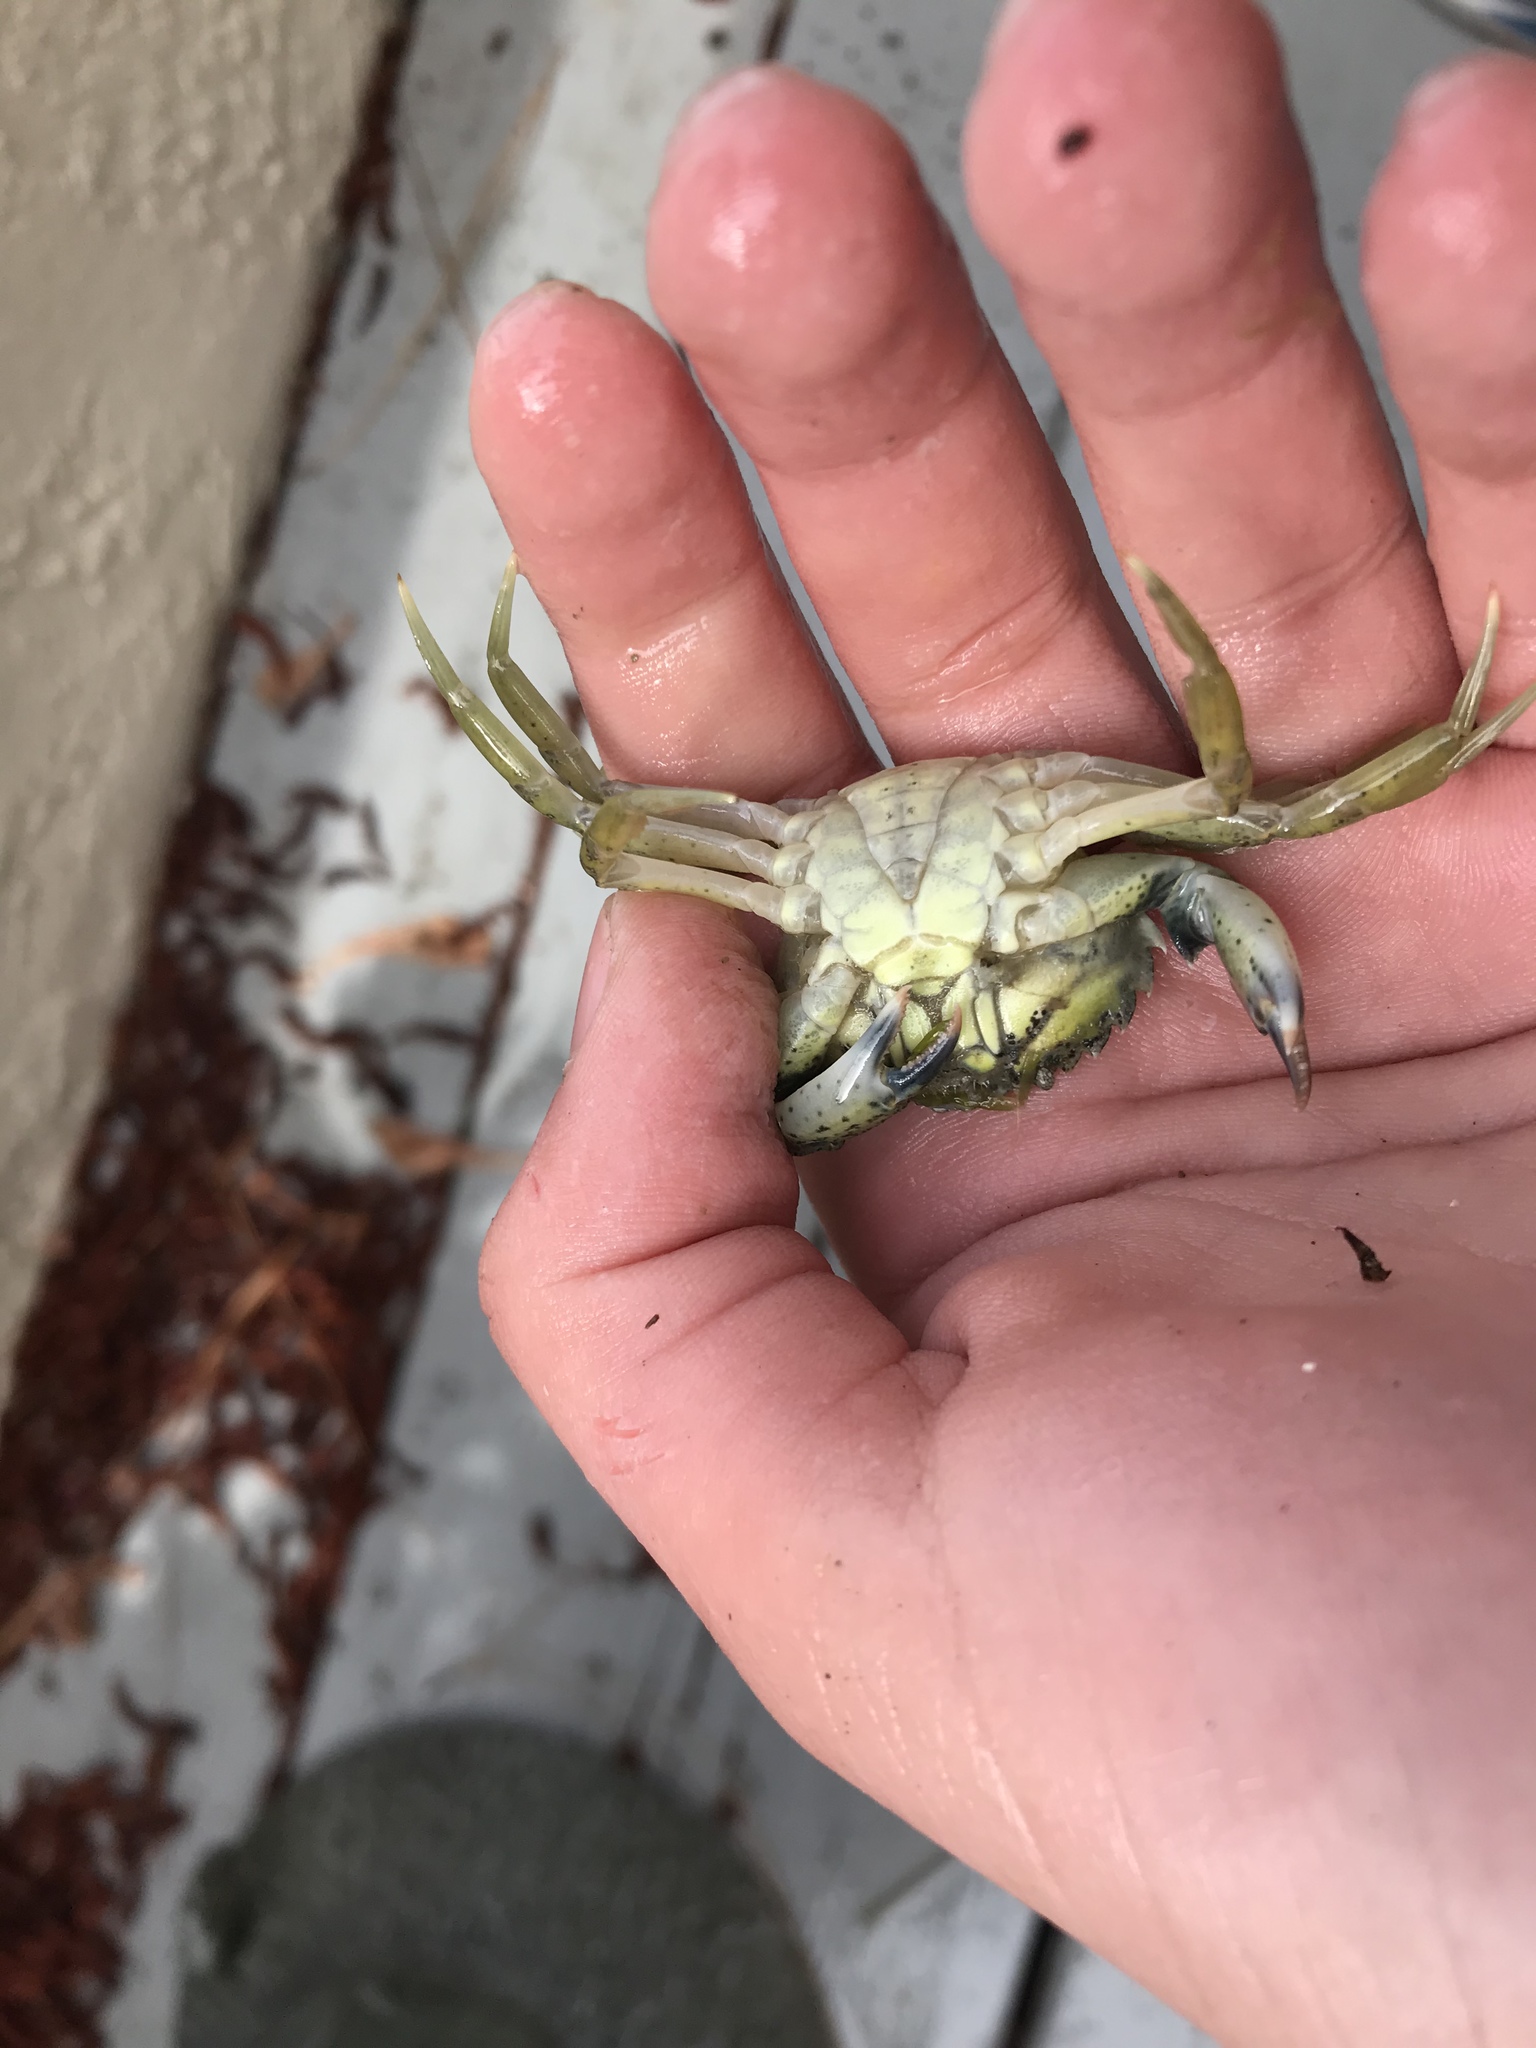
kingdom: Animalia
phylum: Arthropoda
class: Malacostraca
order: Decapoda
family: Carcinidae
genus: Carcinus
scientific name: Carcinus maenas
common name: European green crab
